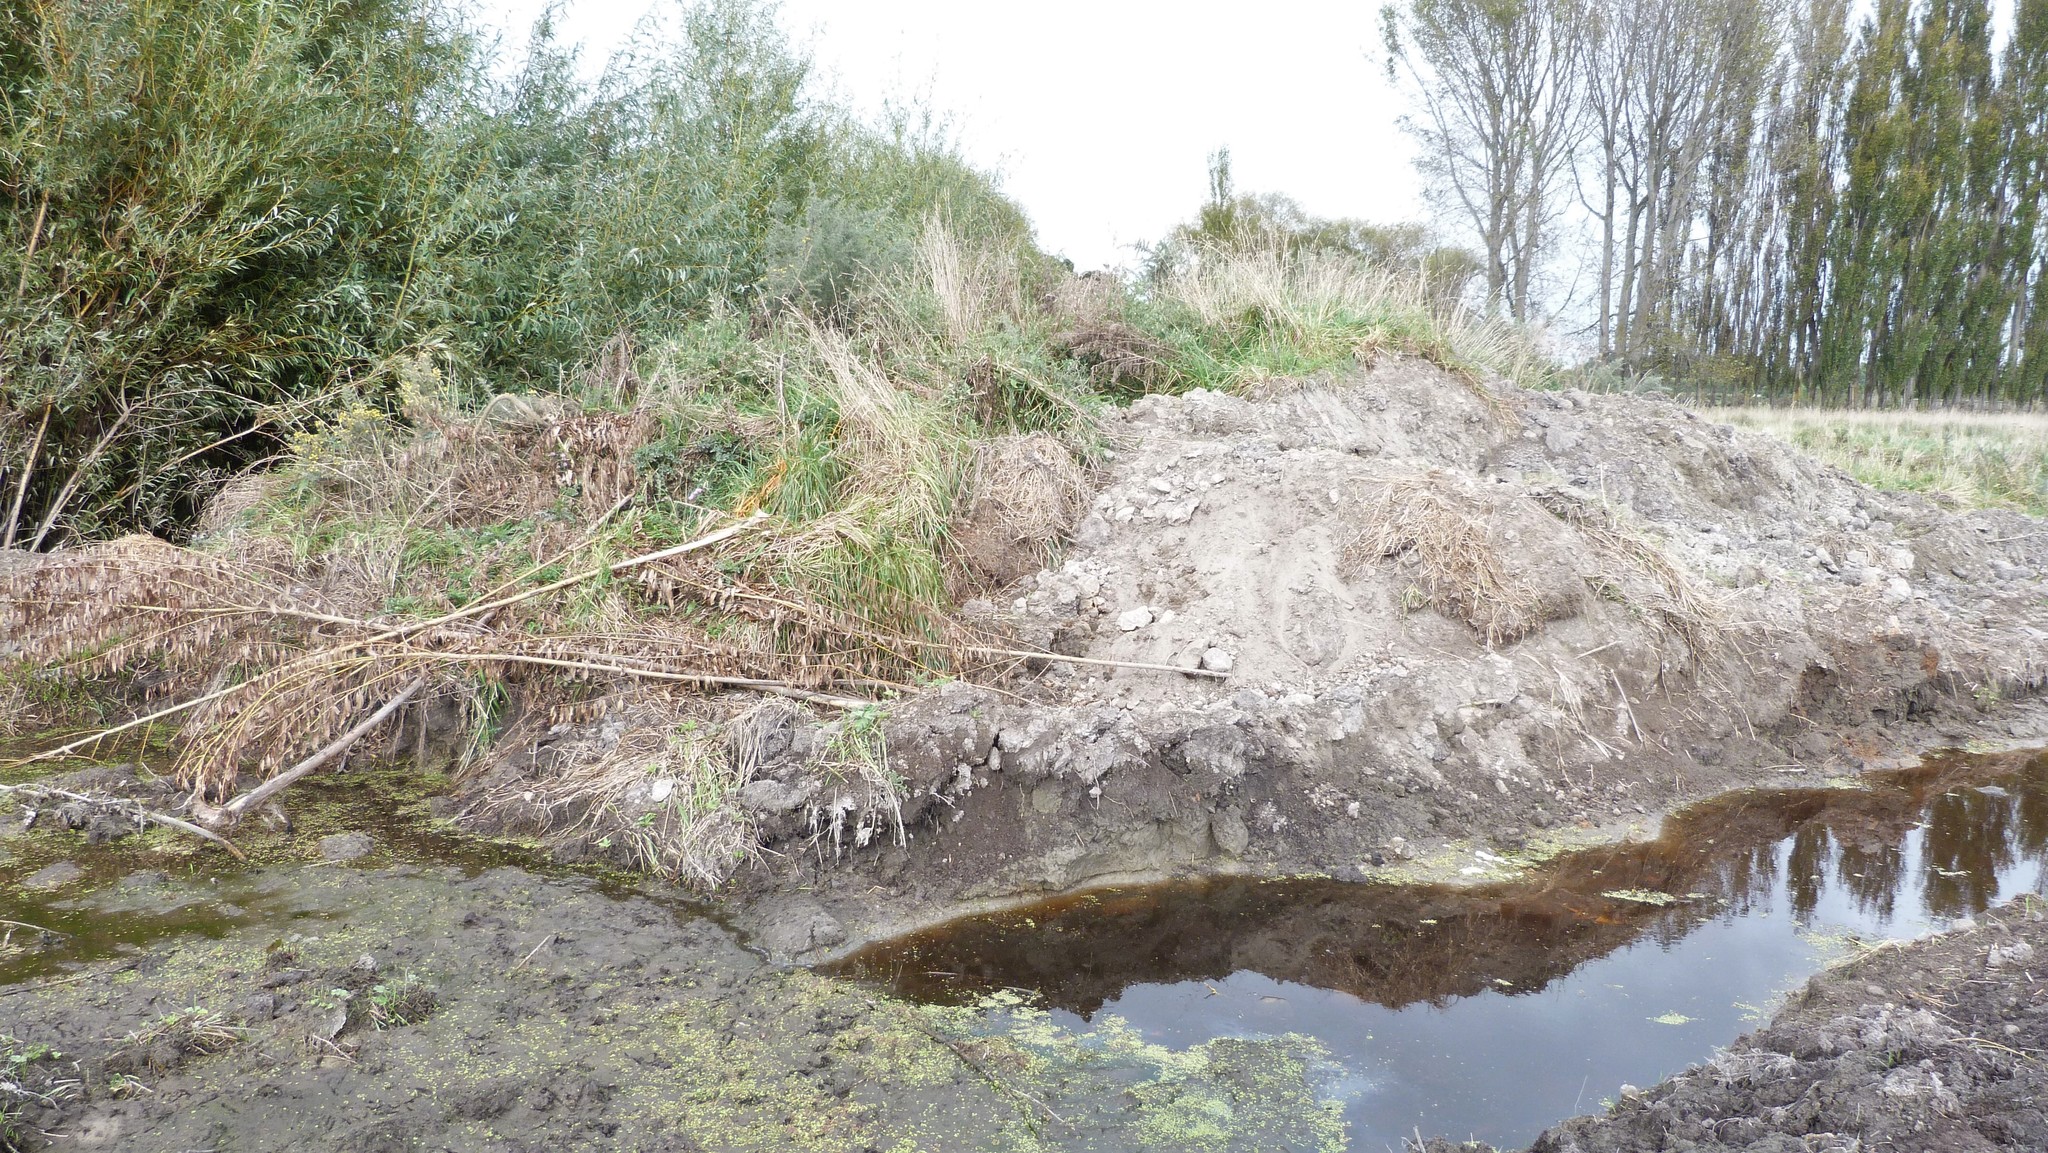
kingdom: Plantae
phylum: Tracheophyta
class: Magnoliopsida
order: Malpighiales
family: Salicaceae
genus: Salix
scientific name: Salix fragilis
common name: Crack willow
